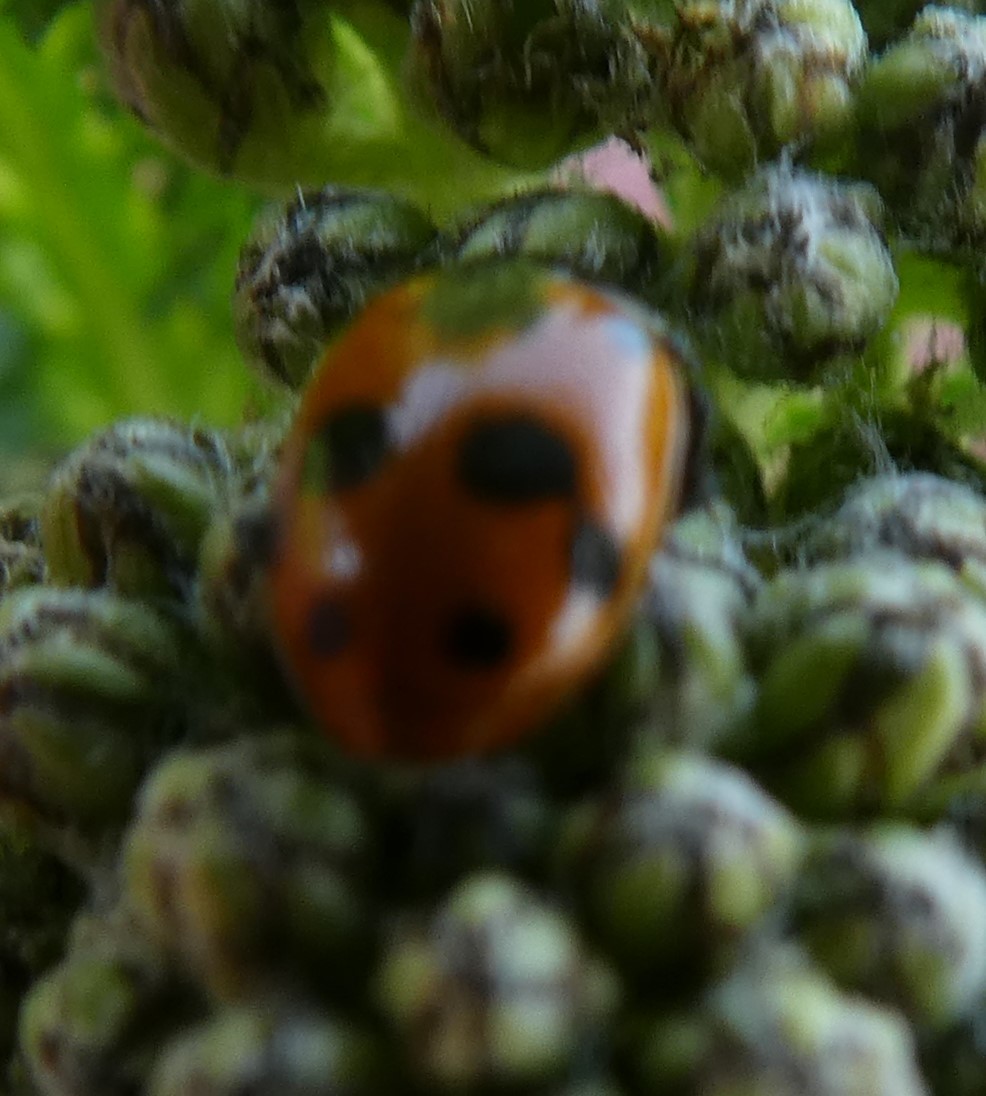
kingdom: Animalia
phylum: Arthropoda
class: Insecta
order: Coleoptera
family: Coccinellidae
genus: Hippodamia
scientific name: Hippodamia variegata
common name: Ladybird beetle
